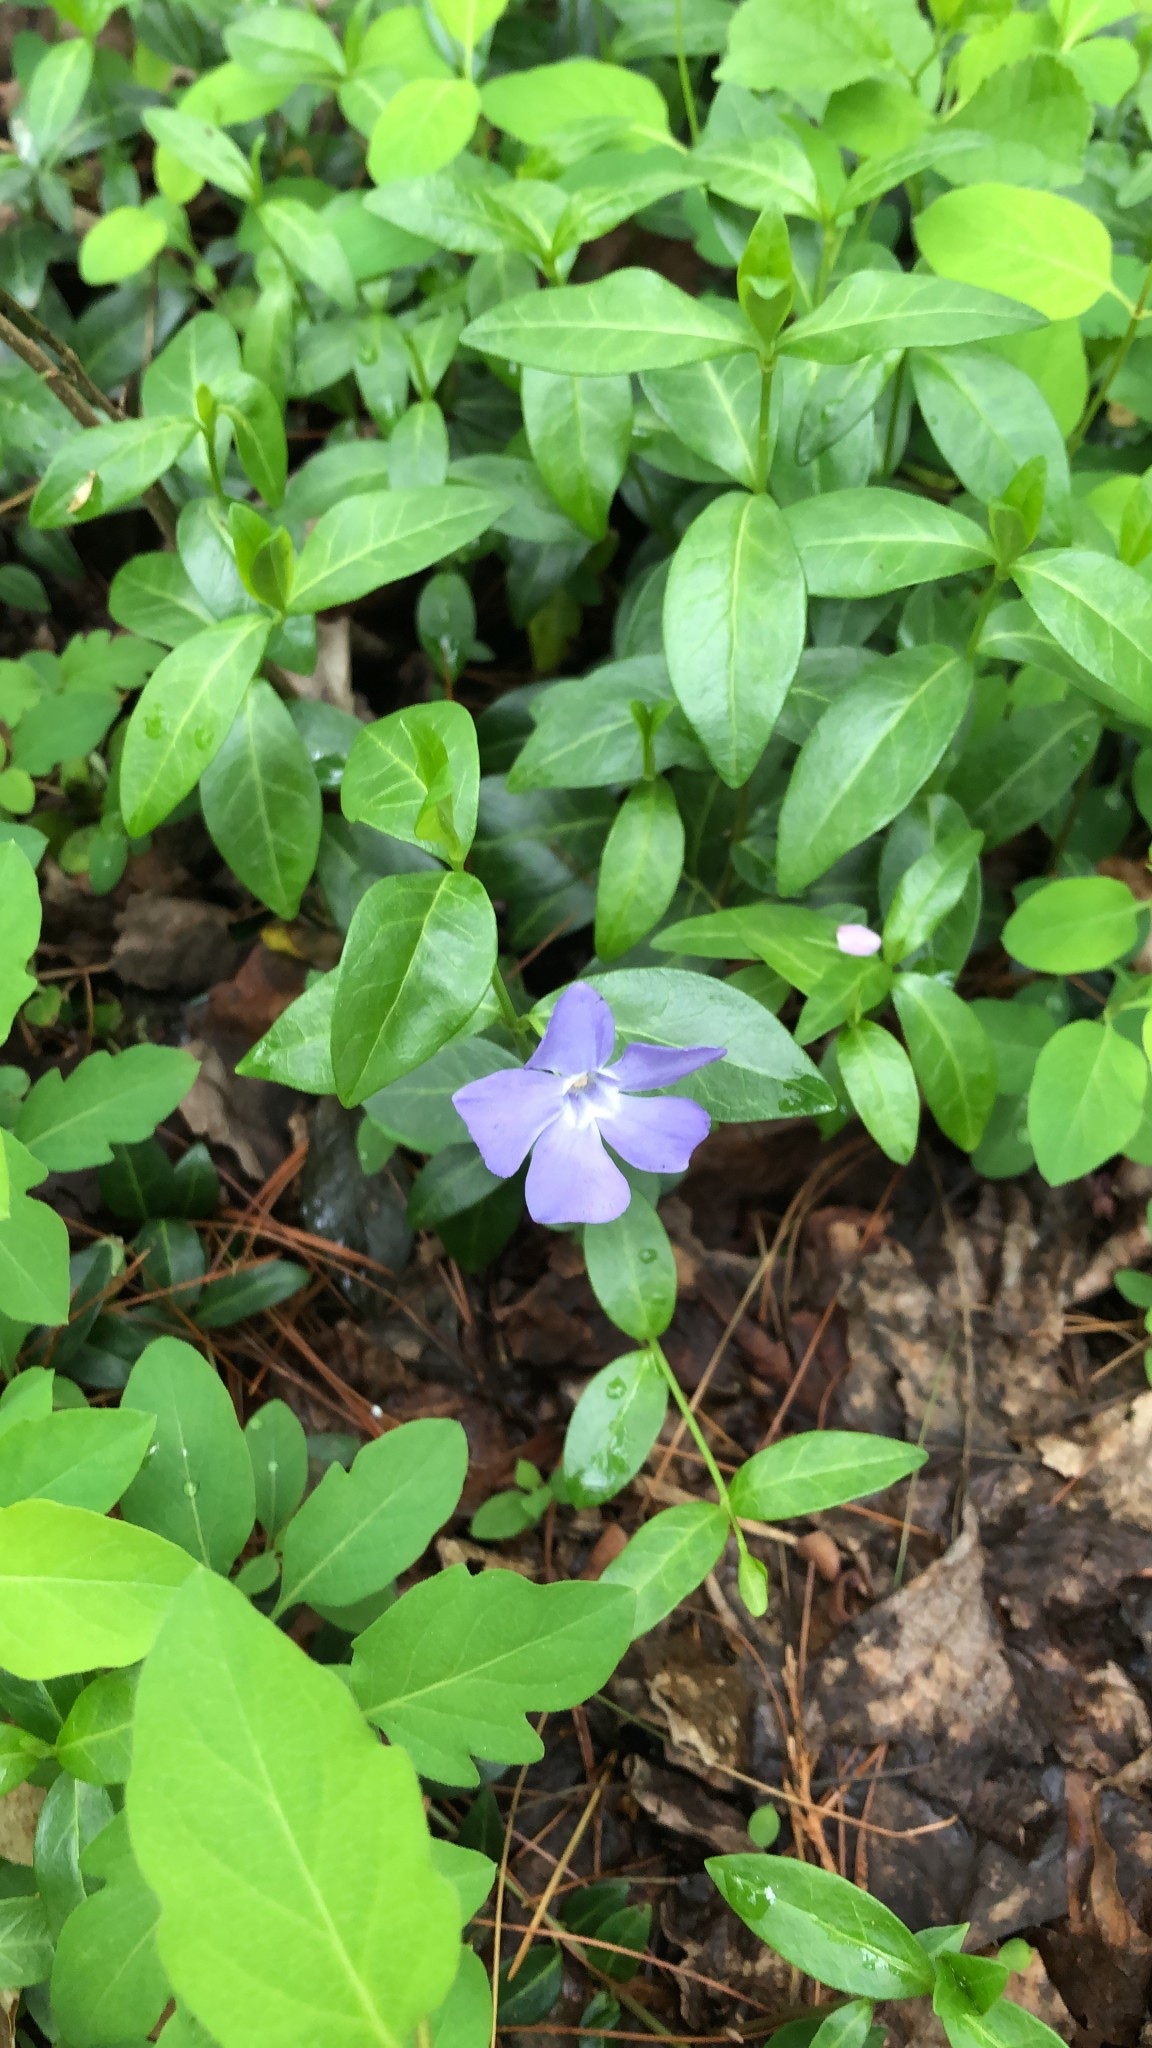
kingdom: Plantae
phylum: Tracheophyta
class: Magnoliopsida
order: Gentianales
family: Apocynaceae
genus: Vinca
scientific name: Vinca minor
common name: Lesser periwinkle
